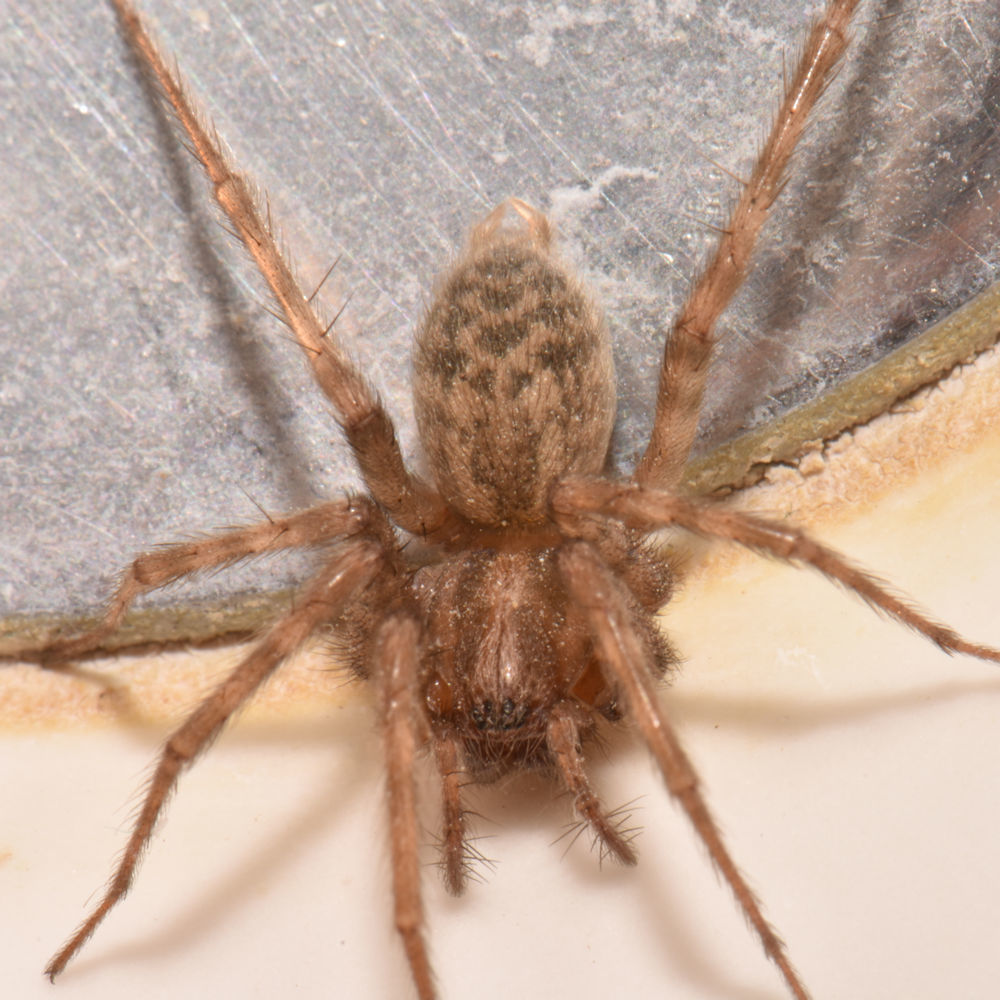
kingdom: Animalia
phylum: Arthropoda
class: Arachnida
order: Araneae
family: Agelenidae
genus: Tegenaria
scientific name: Tegenaria domestica
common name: Barn funnel weaver
